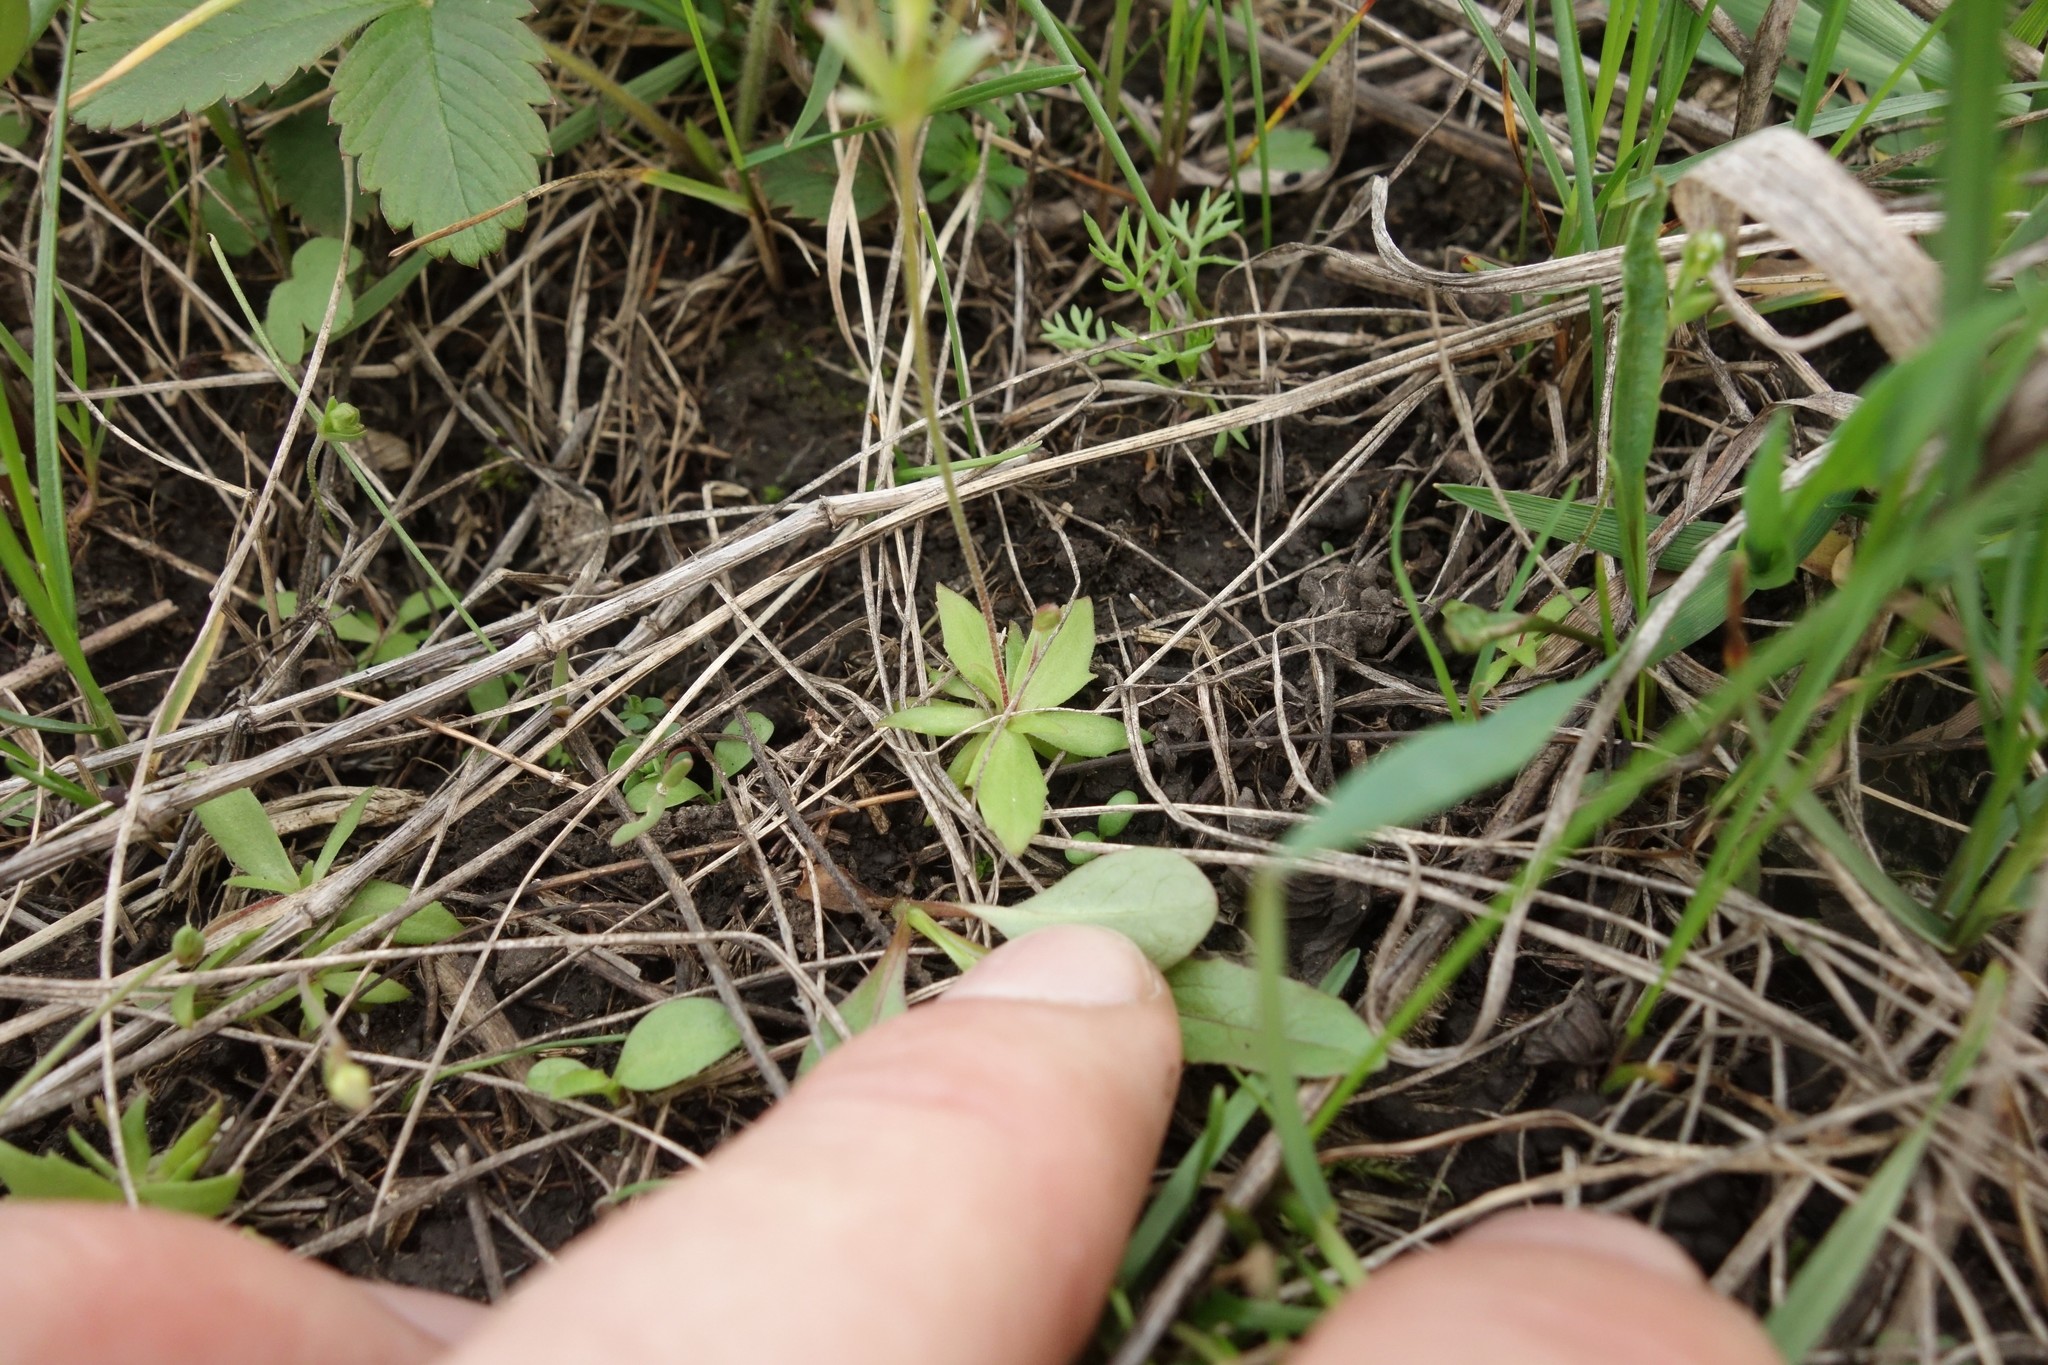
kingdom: Plantae
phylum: Tracheophyta
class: Magnoliopsida
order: Ericales
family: Primulaceae
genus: Androsace
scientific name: Androsace elongata
